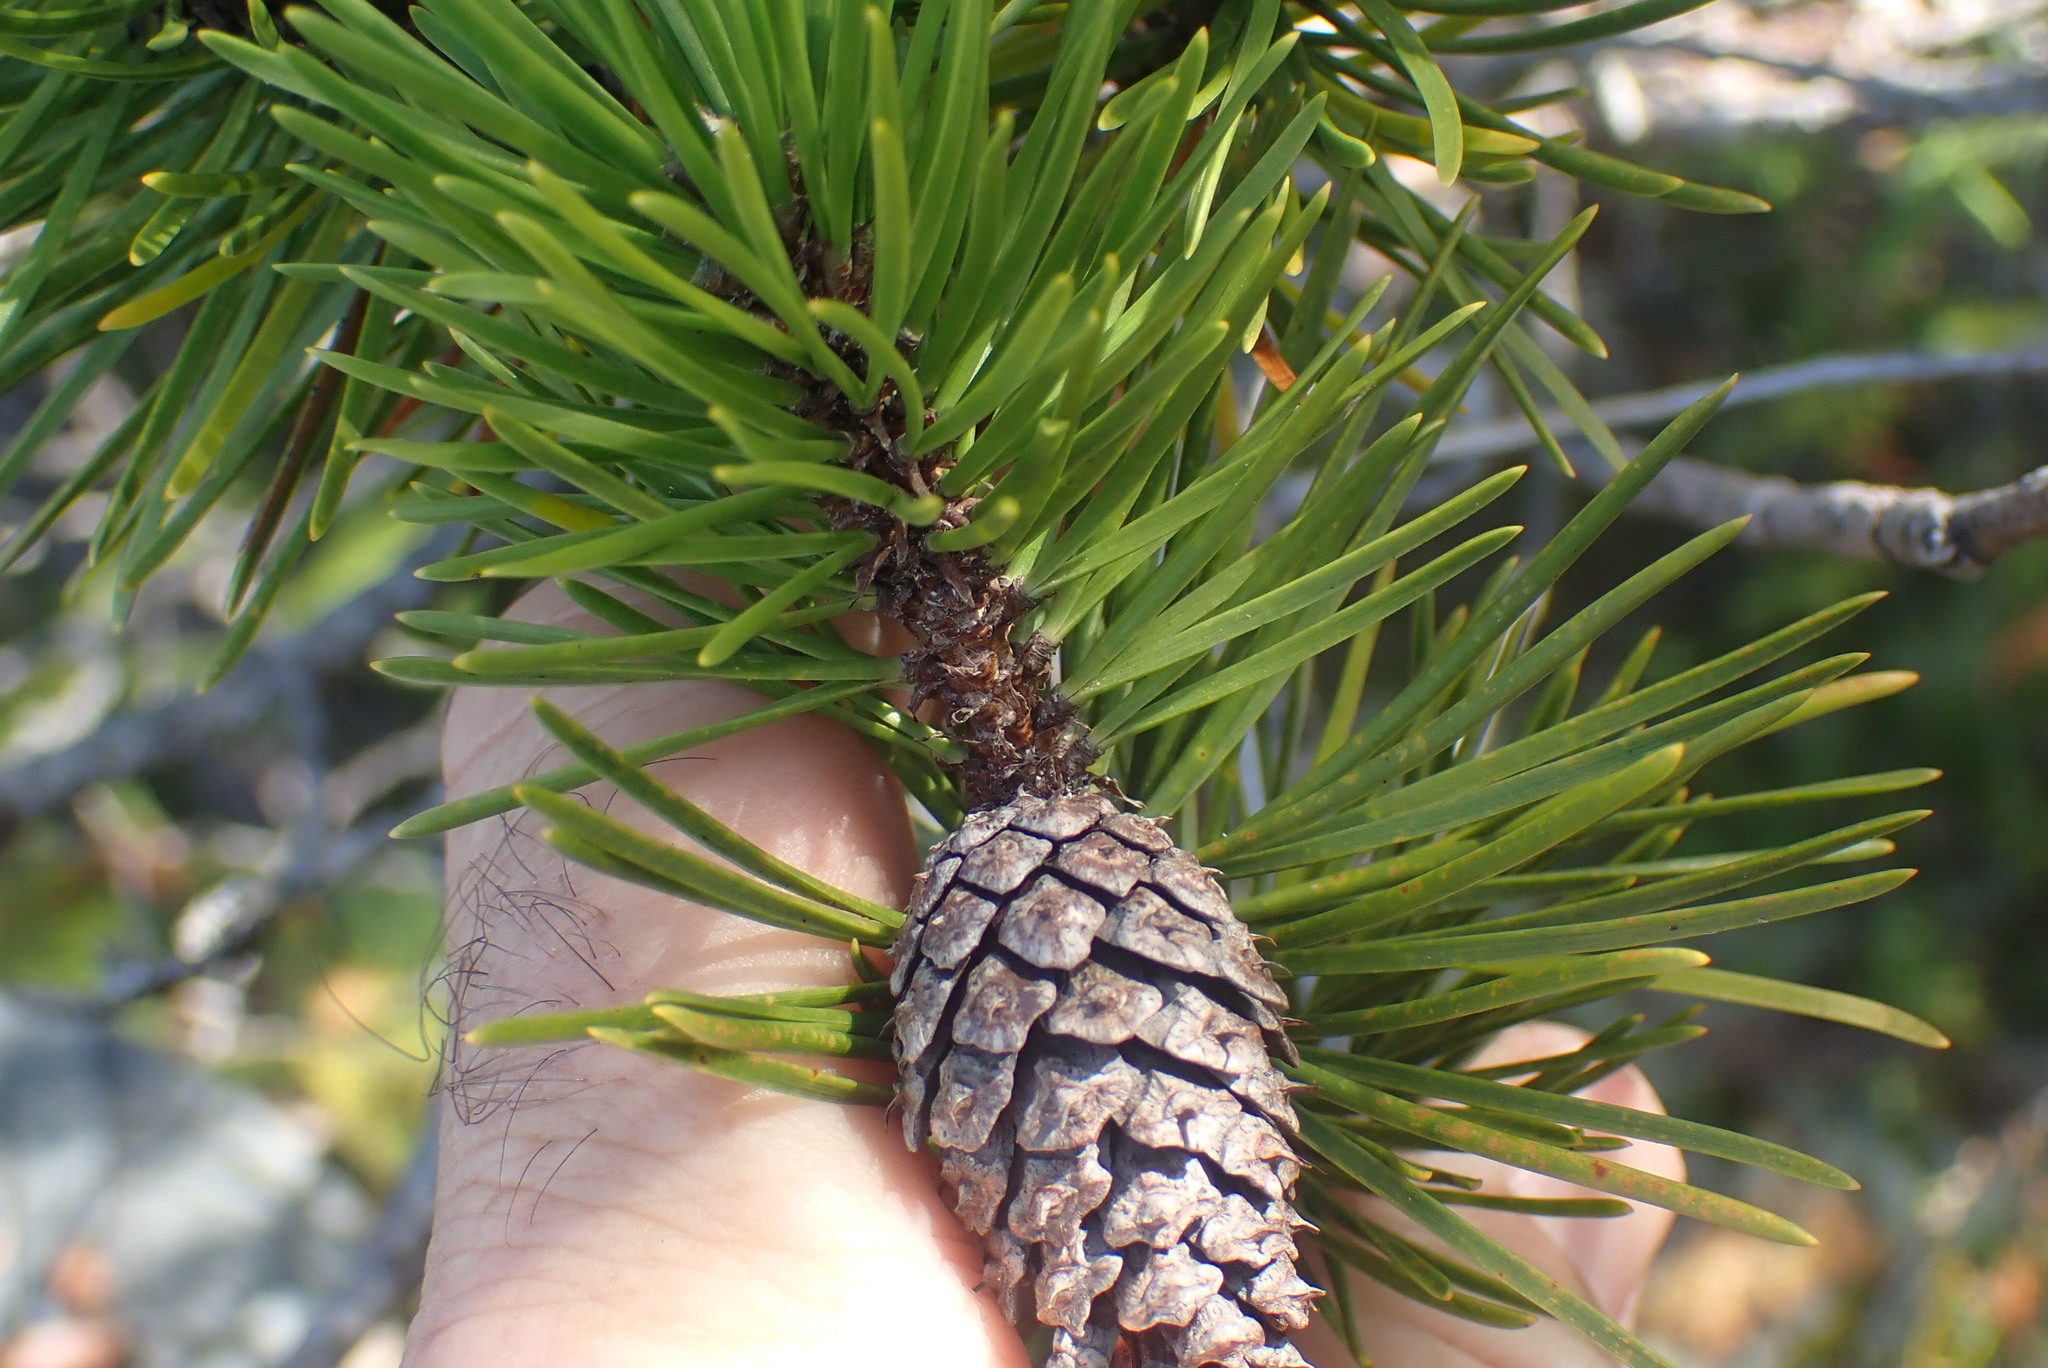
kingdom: Plantae
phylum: Tracheophyta
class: Pinopsida
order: Pinales
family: Pinaceae
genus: Pinus
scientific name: Pinus contorta
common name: Lodgepole pine
